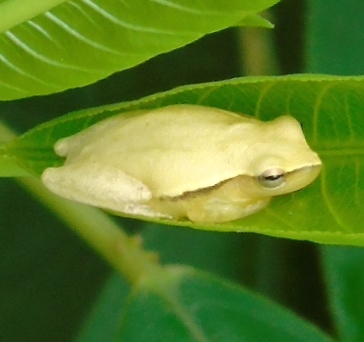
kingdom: Animalia
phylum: Chordata
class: Amphibia
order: Anura
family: Hylidae
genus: Tlalocohyla
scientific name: Tlalocohyla smithii
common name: Dwarf mexican treefrog
